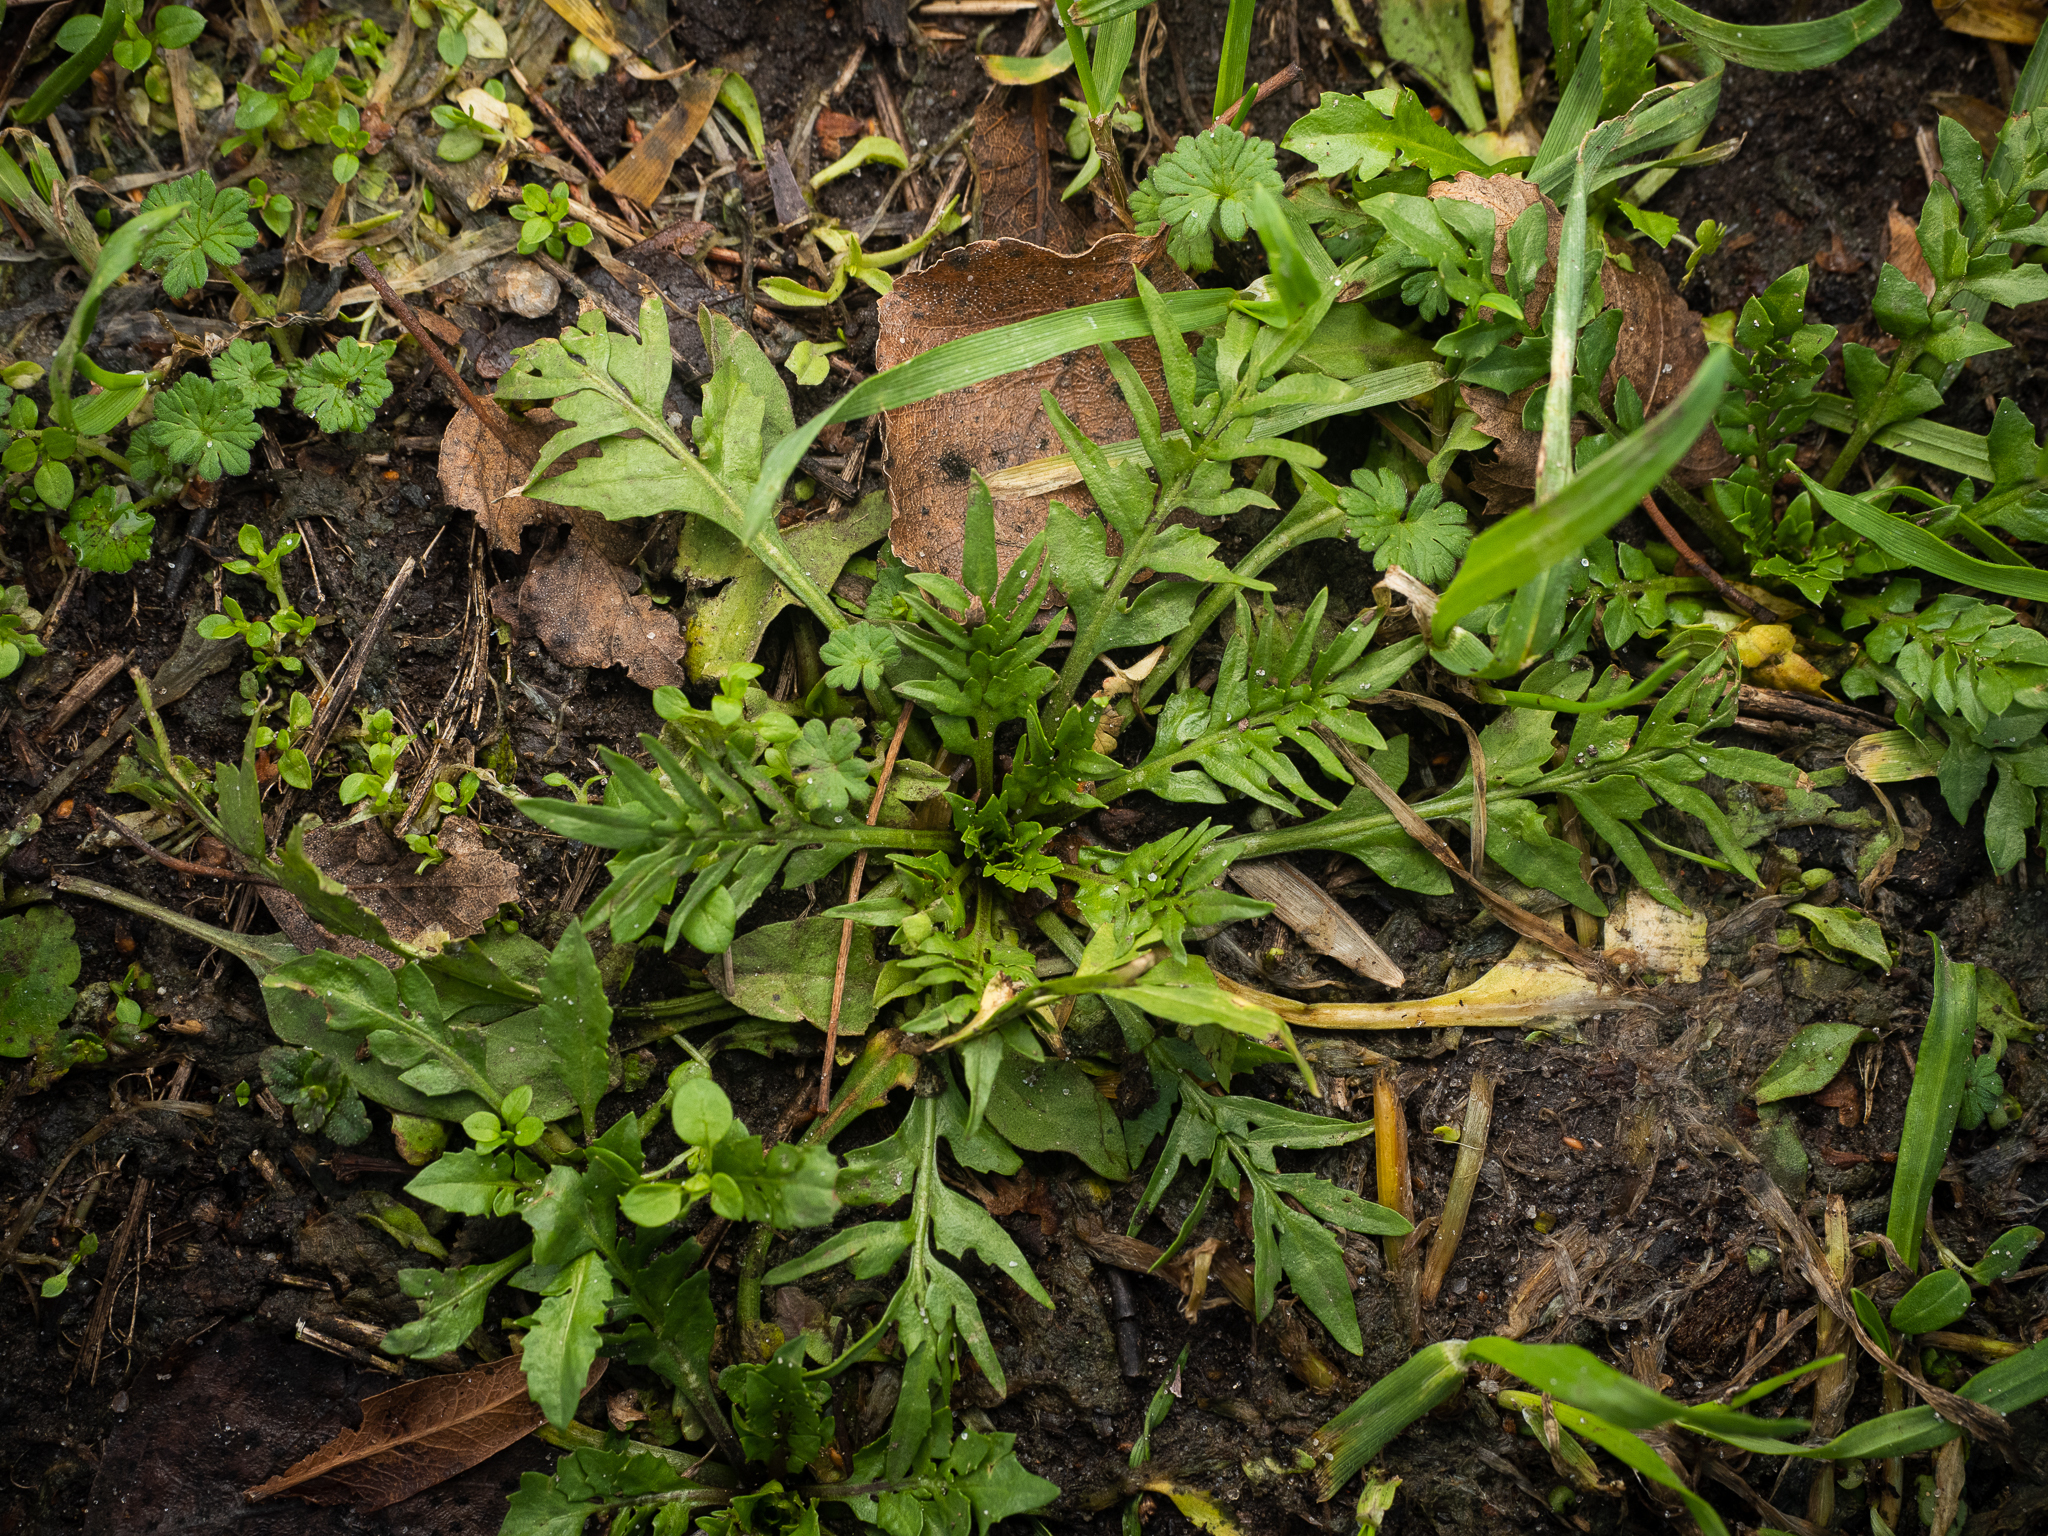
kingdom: Plantae
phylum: Tracheophyta
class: Magnoliopsida
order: Brassicales
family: Brassicaceae
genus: Capsella
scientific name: Capsella bursa-pastoris
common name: Shepherd's purse
